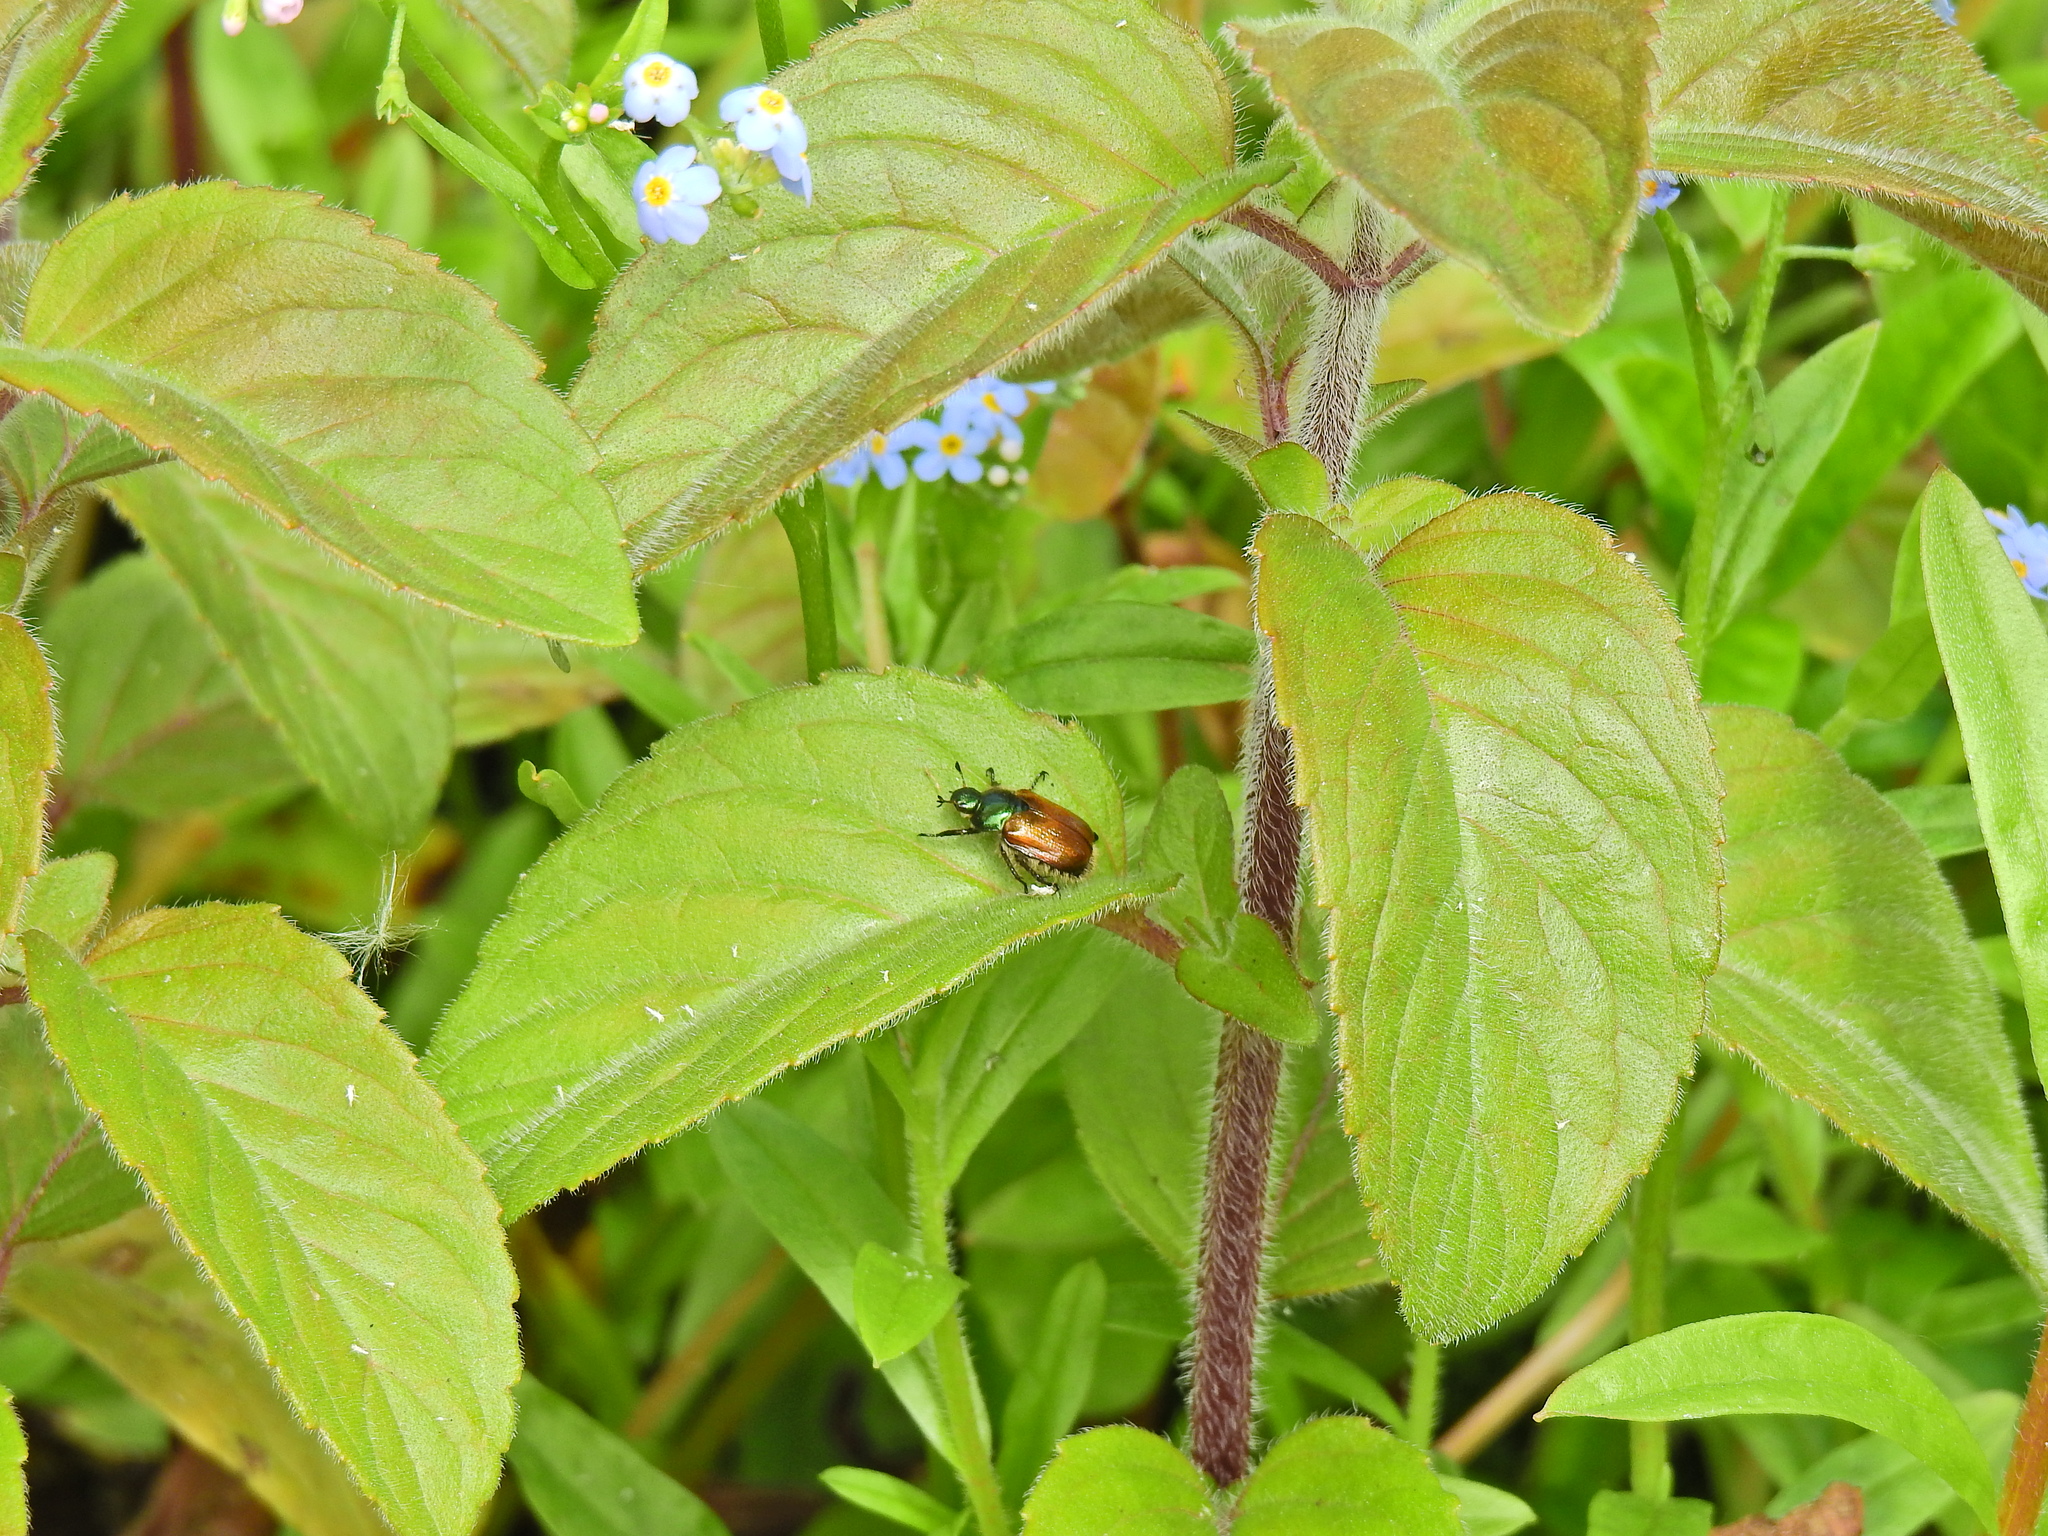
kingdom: Animalia
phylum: Arthropoda
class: Insecta
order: Coleoptera
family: Scarabaeidae
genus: Phyllopertha
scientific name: Phyllopertha horticola
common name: Garden chafer
